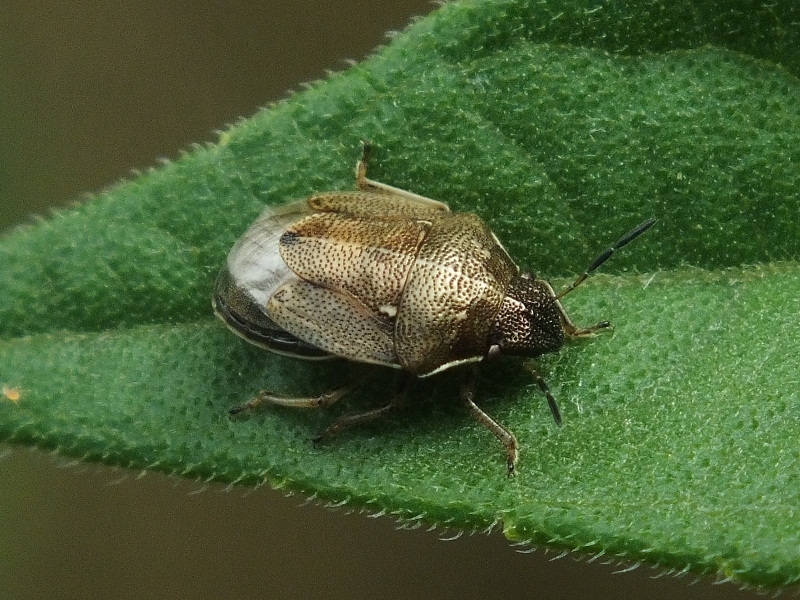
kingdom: Animalia
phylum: Arthropoda
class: Insecta
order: Hemiptera
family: Pentatomidae
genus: Neottiglossa
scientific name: Neottiglossa pusilla
